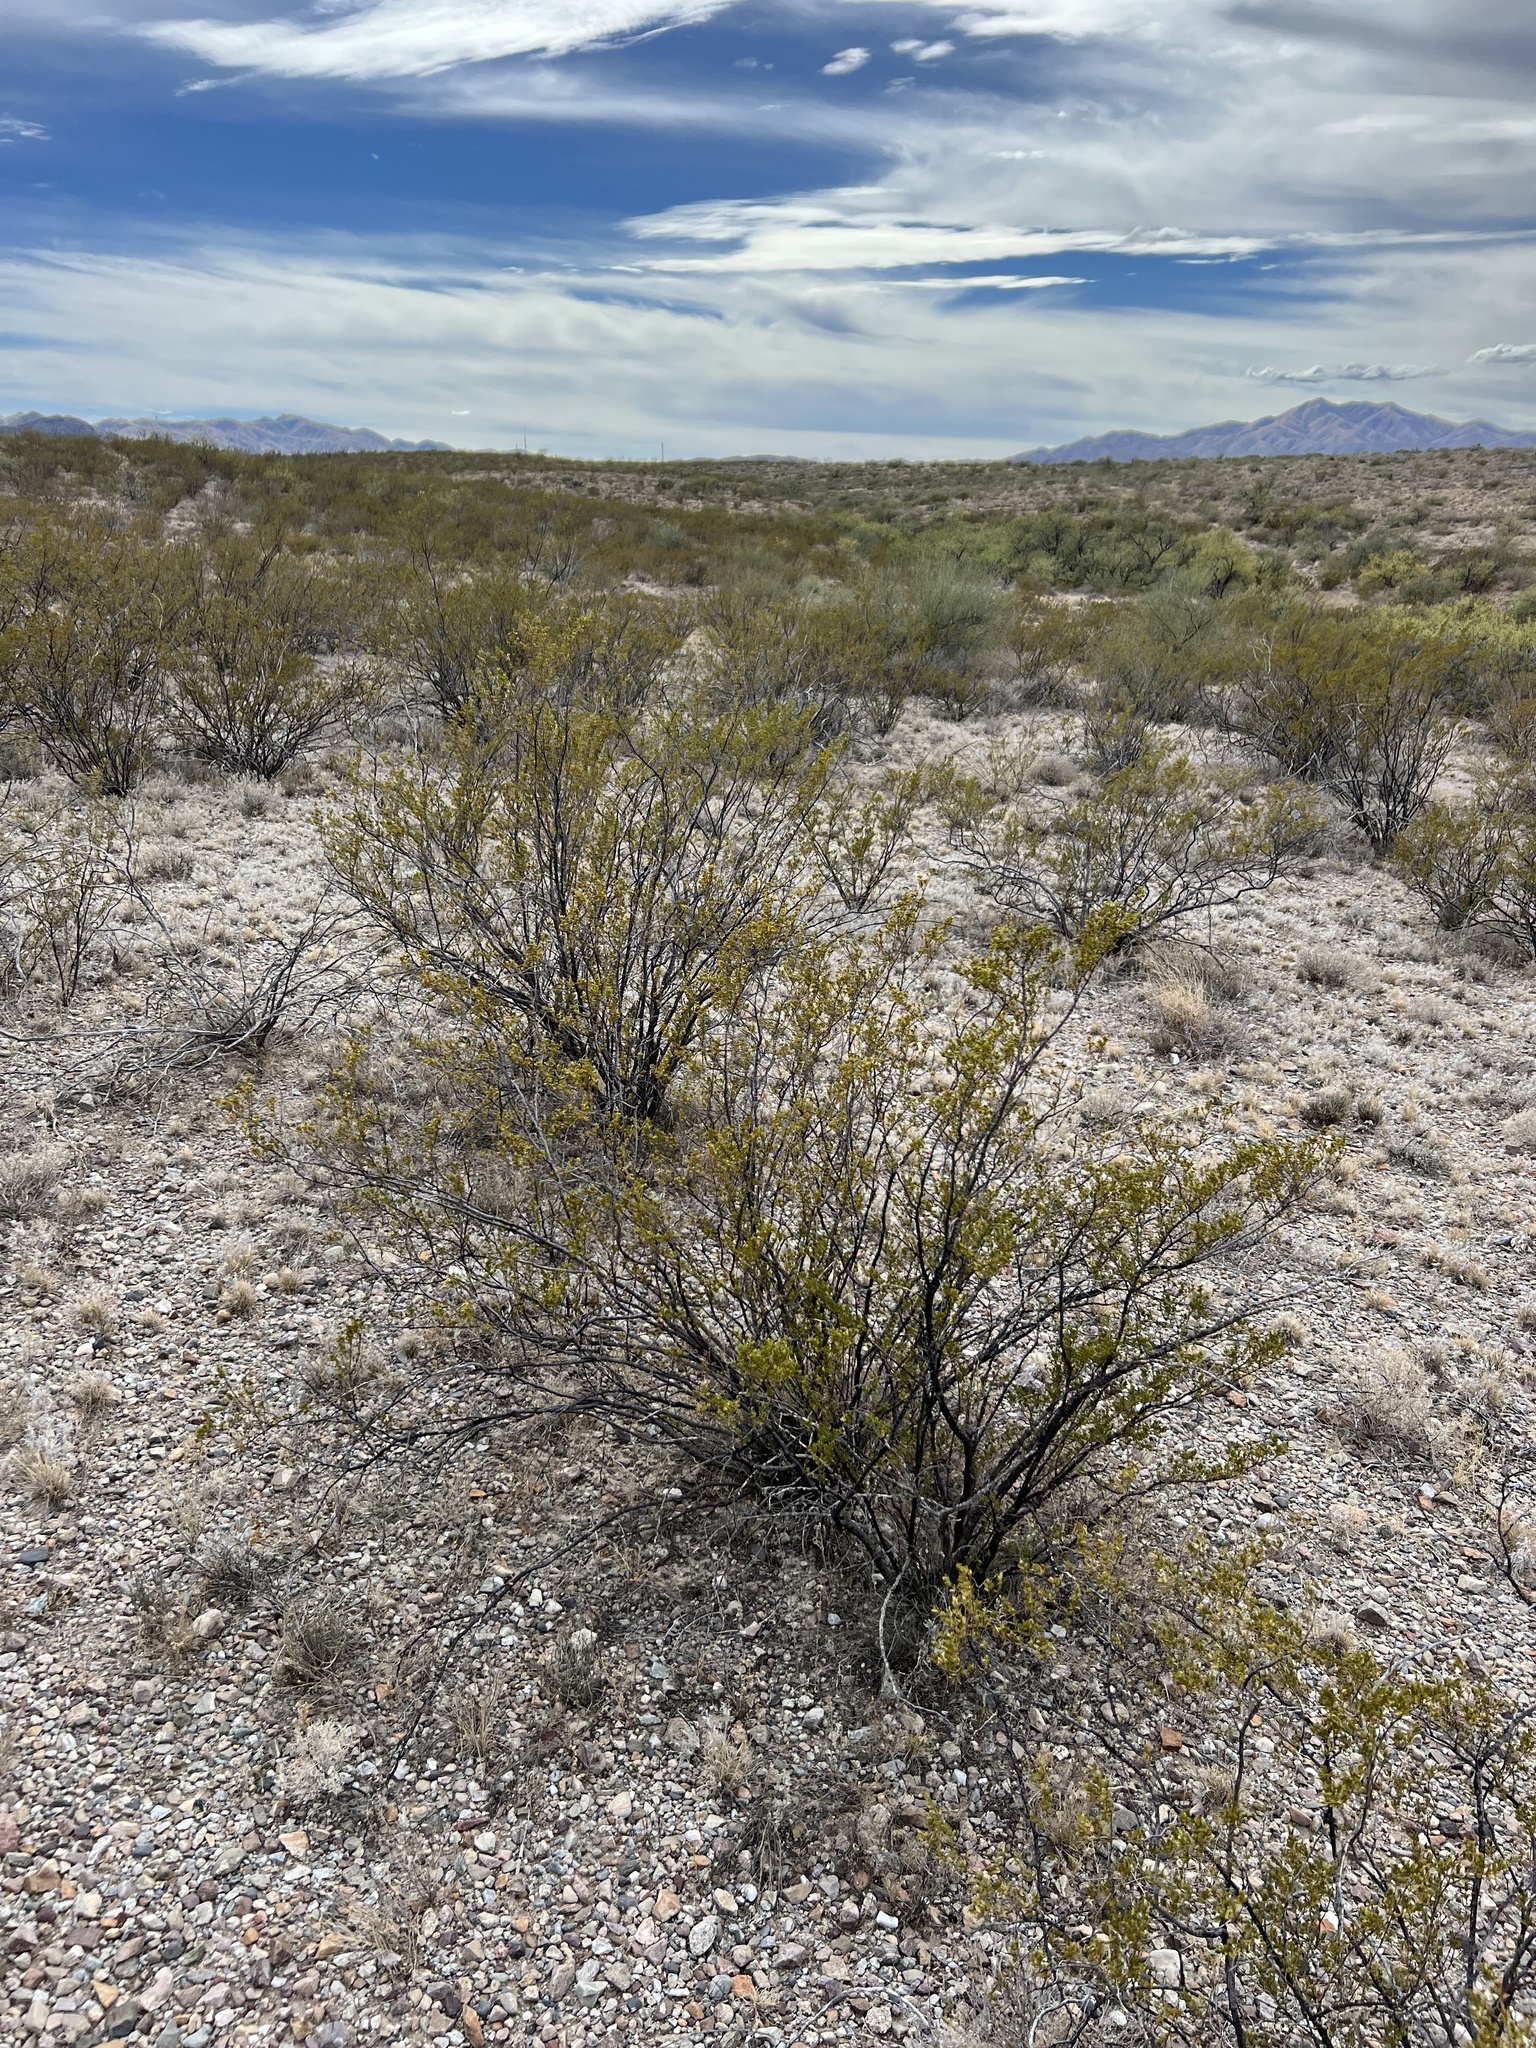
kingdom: Plantae
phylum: Tracheophyta
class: Magnoliopsida
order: Zygophyllales
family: Zygophyllaceae
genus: Larrea
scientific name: Larrea tridentata
